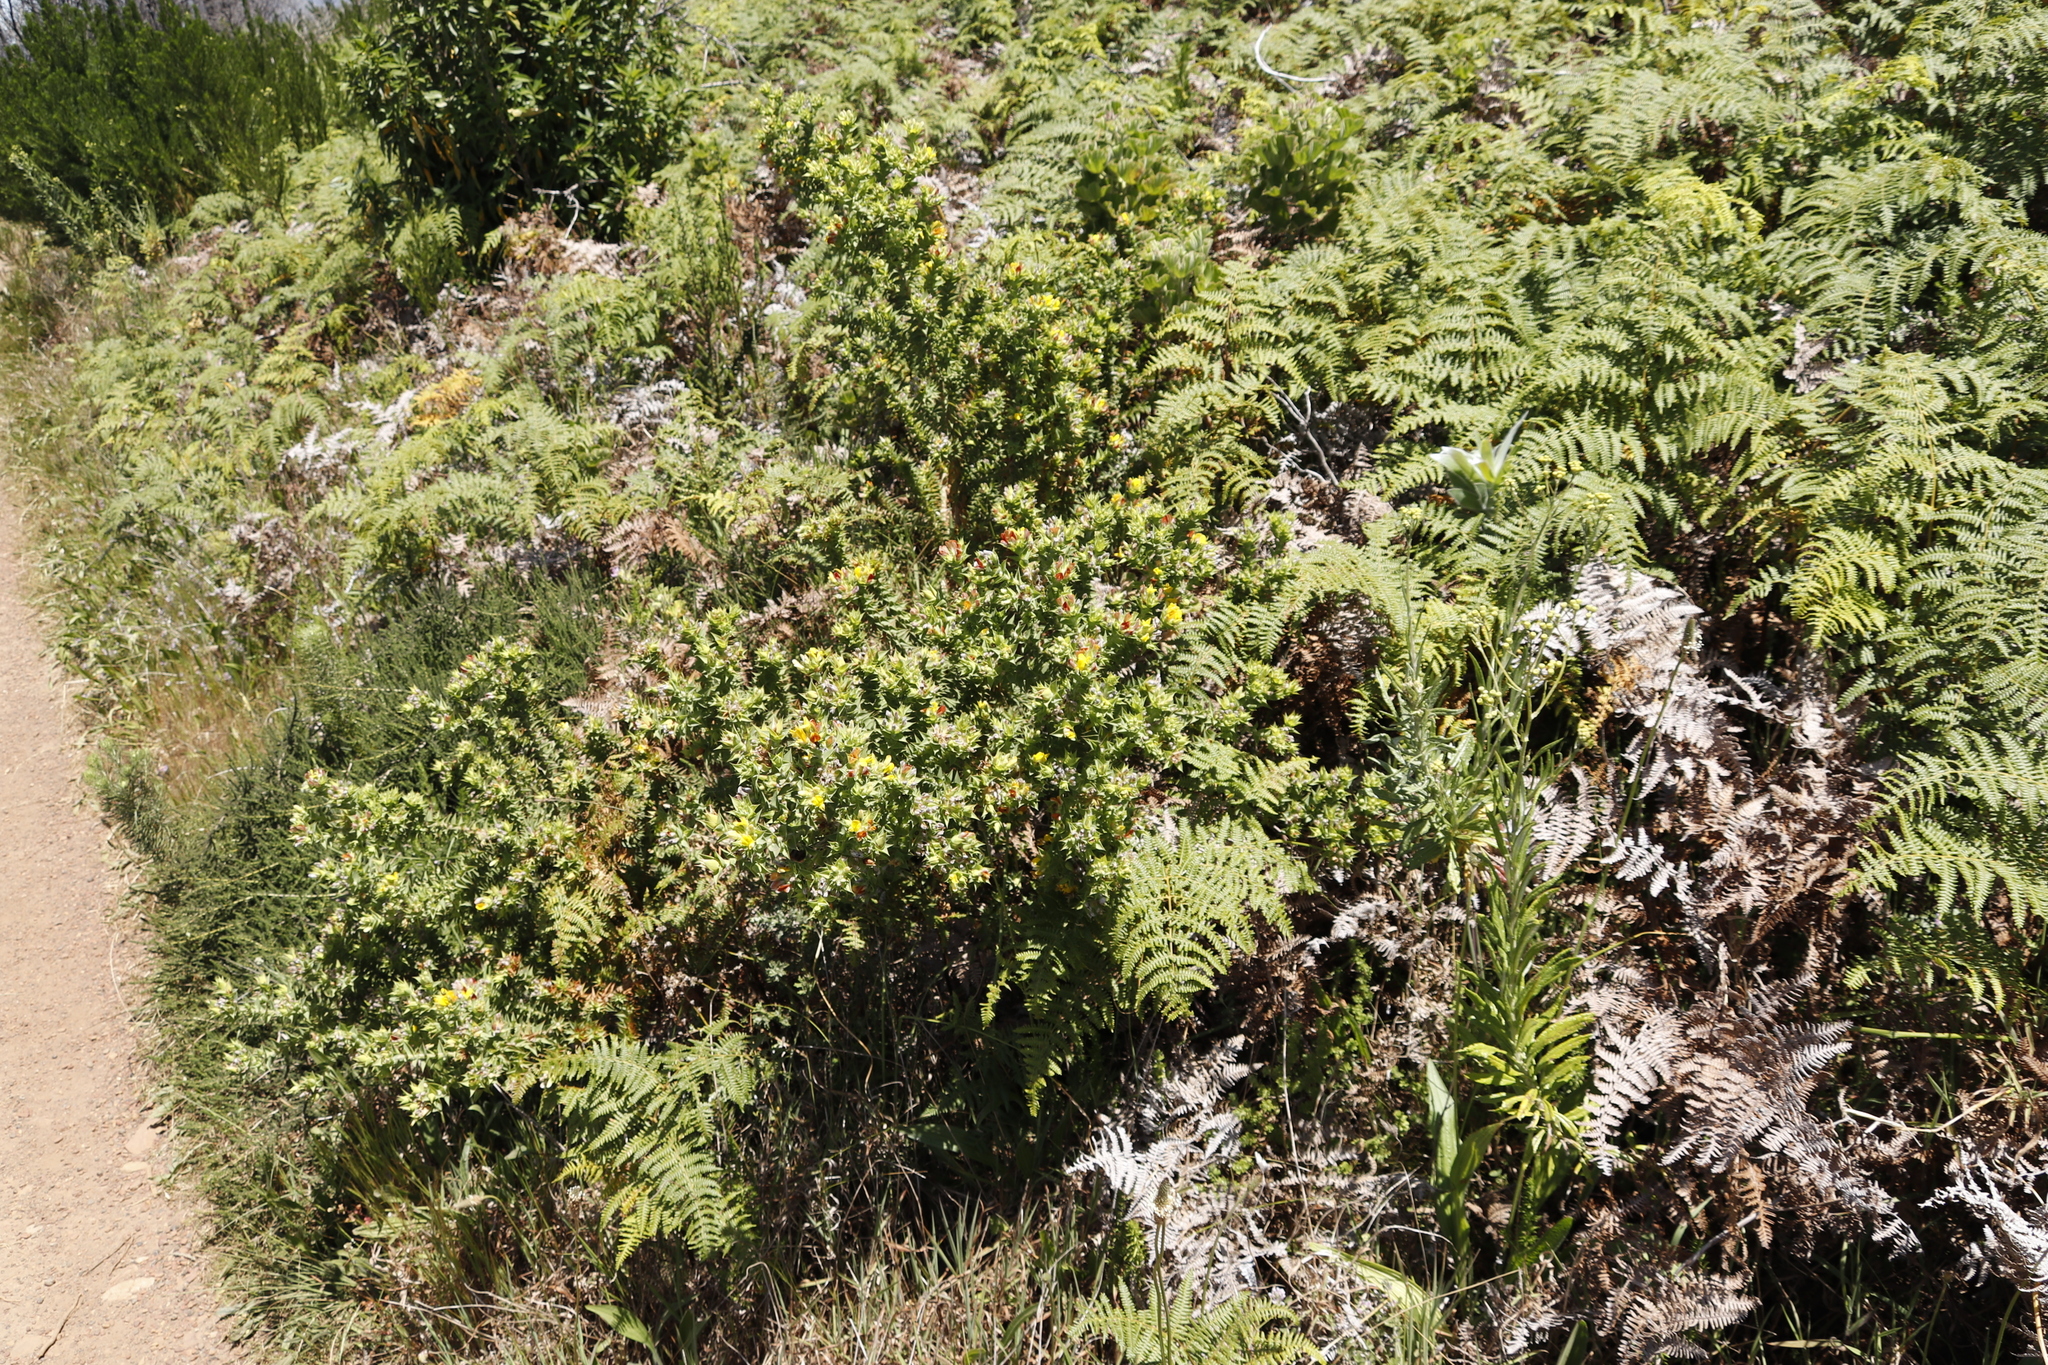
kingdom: Plantae
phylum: Tracheophyta
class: Magnoliopsida
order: Fabales
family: Fabaceae
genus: Aspalathus
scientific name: Aspalathus cordata
